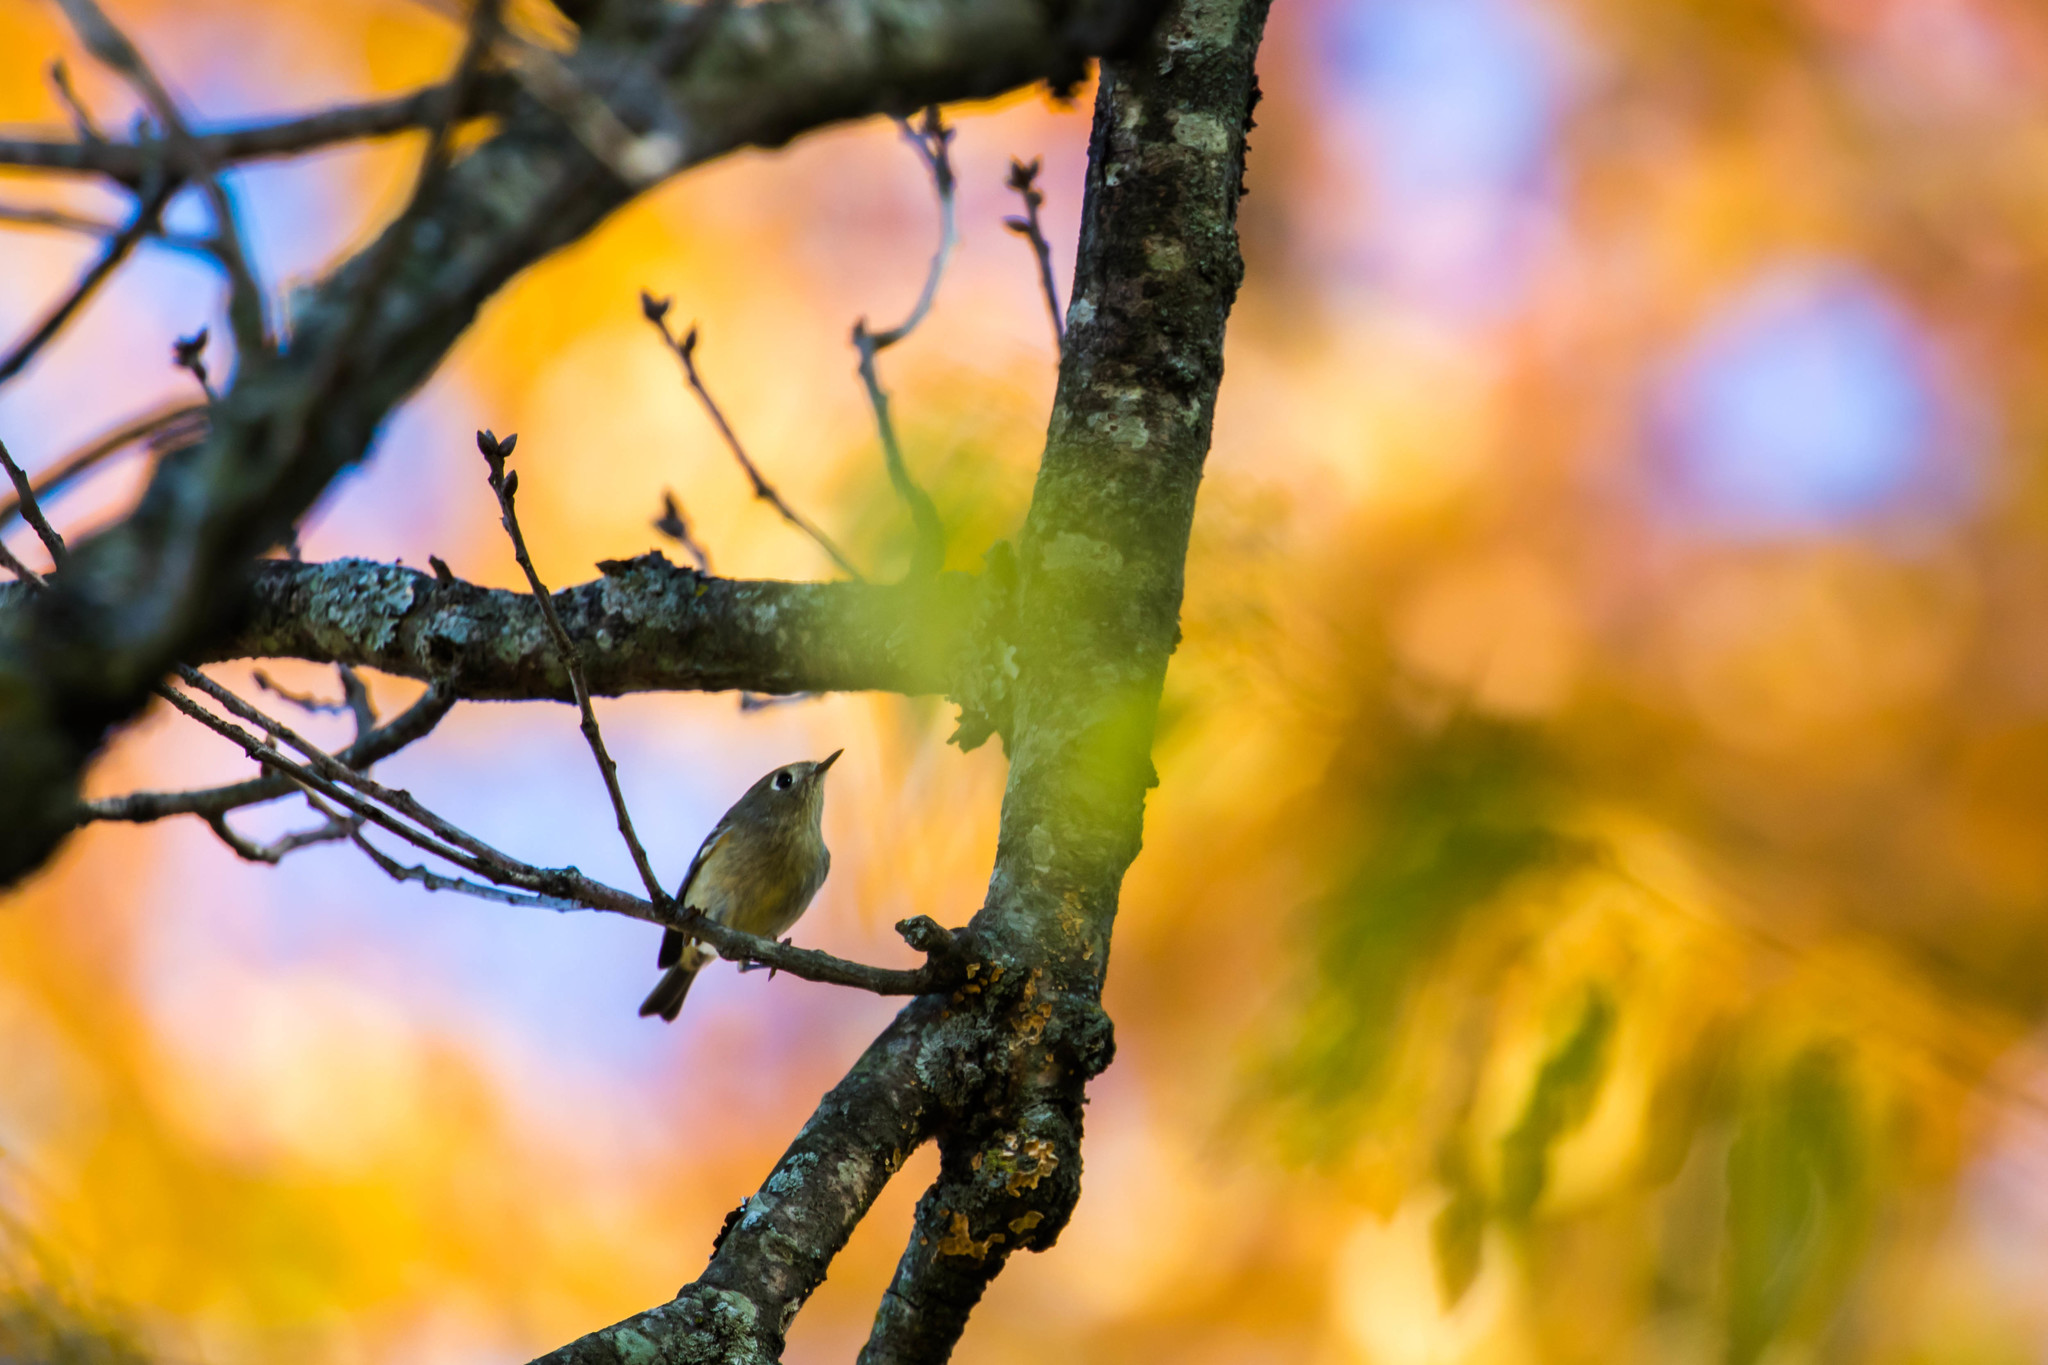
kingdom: Animalia
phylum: Chordata
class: Aves
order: Passeriformes
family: Regulidae
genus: Regulus
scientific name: Regulus calendula
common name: Ruby-crowned kinglet
